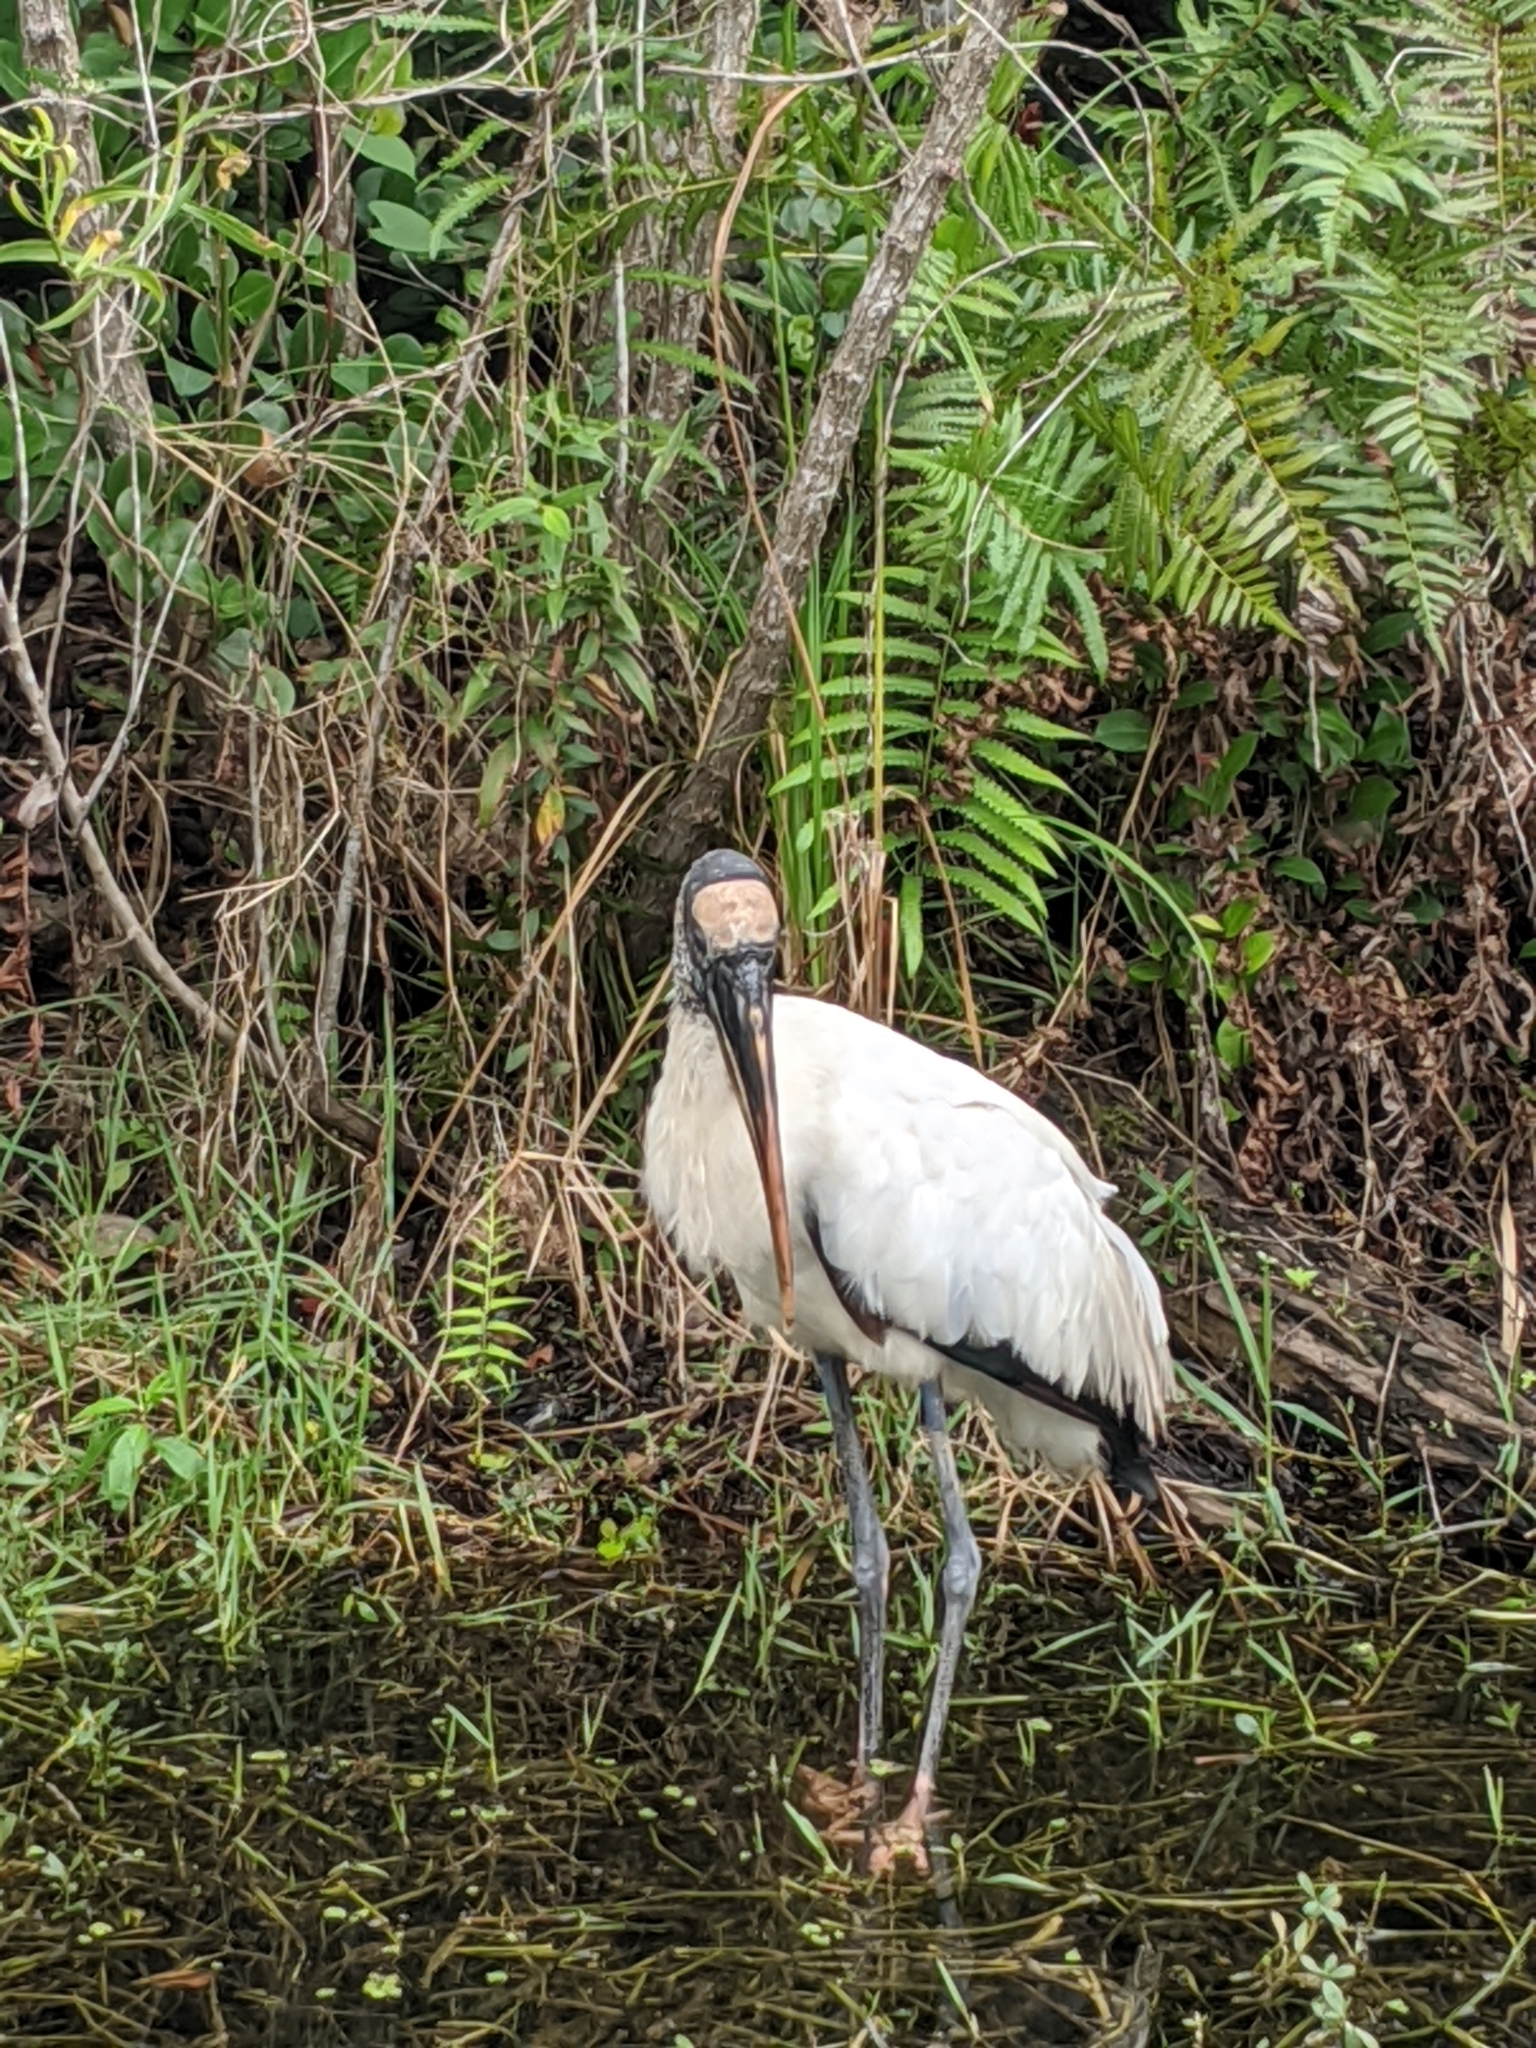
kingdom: Animalia
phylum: Chordata
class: Aves
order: Ciconiiformes
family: Ciconiidae
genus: Mycteria
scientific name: Mycteria americana
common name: Wood stork
